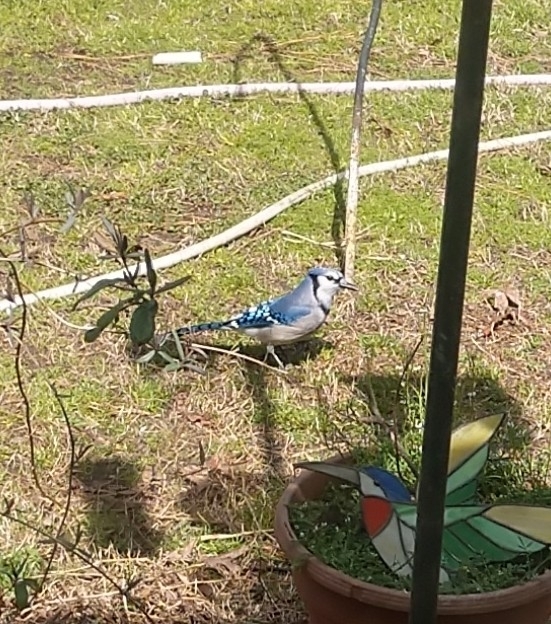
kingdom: Animalia
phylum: Chordata
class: Aves
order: Passeriformes
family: Corvidae
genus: Cyanocitta
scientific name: Cyanocitta cristata
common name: Blue jay
